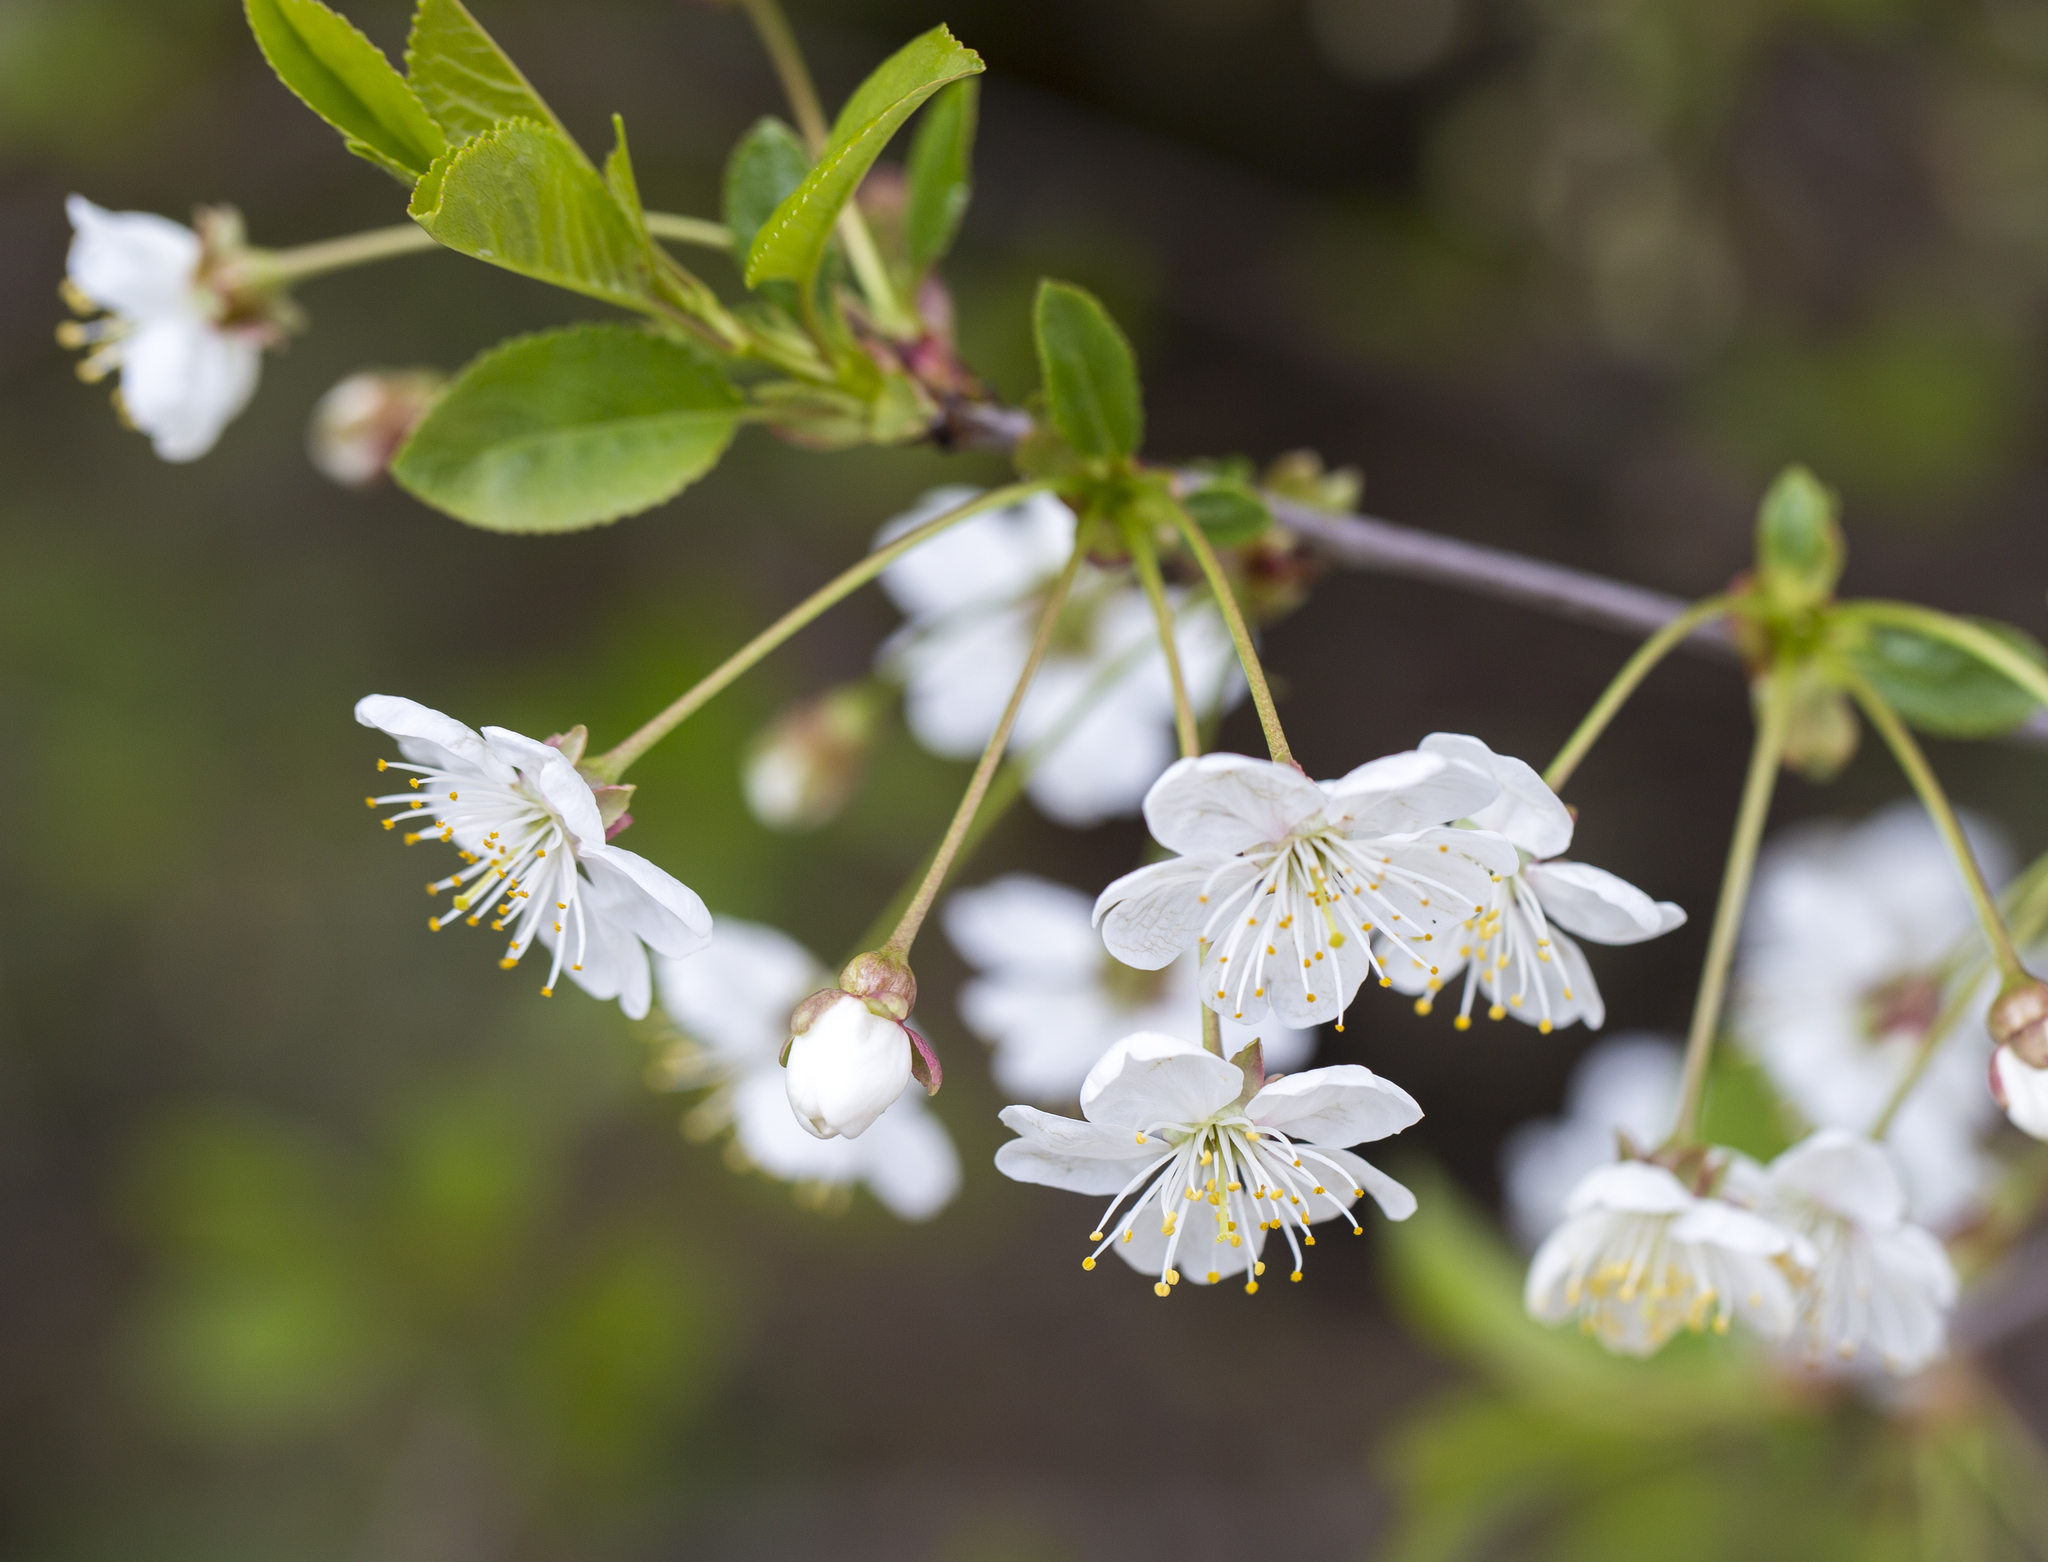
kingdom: Plantae
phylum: Tracheophyta
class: Magnoliopsida
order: Rosales
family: Rosaceae
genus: Prunus
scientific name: Prunus cerasus
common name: Morello cherry
